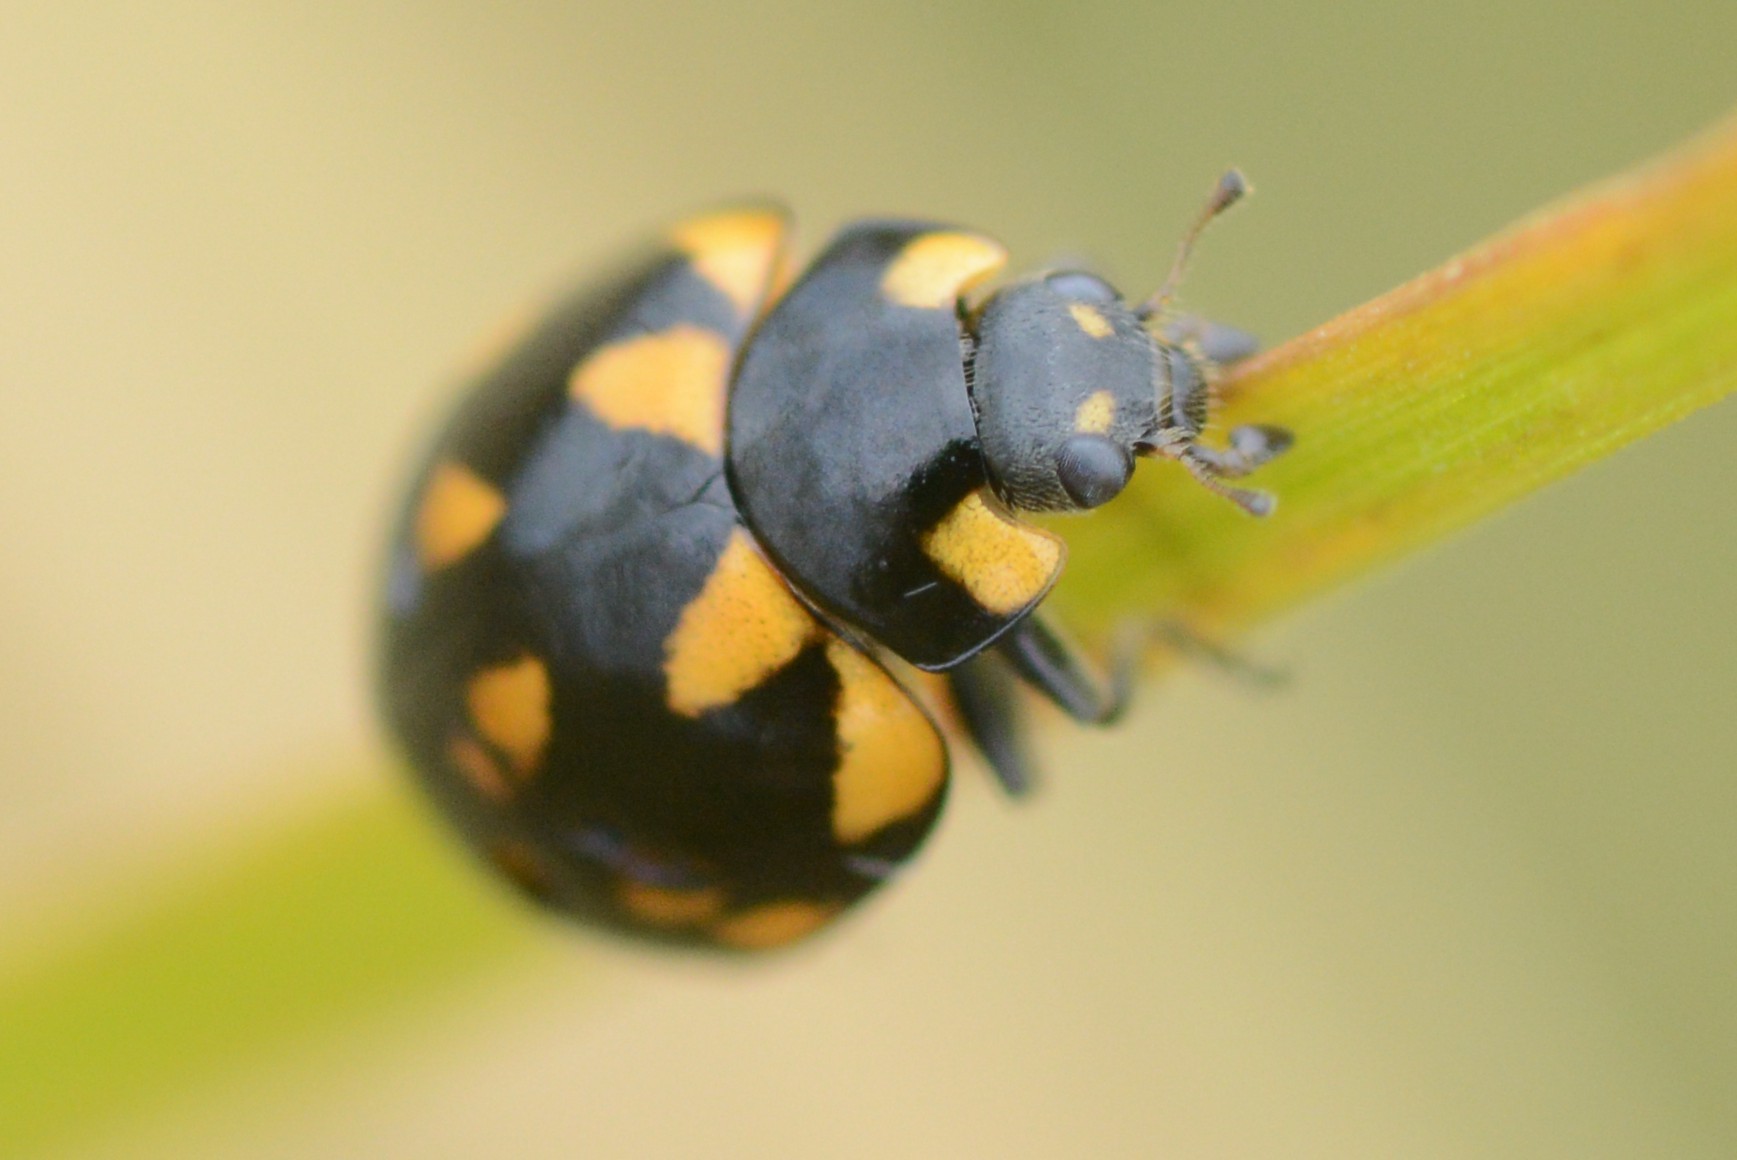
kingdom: Animalia
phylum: Arthropoda
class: Insecta
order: Coleoptera
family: Coccinellidae
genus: Coccinella
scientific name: Coccinella leonina
